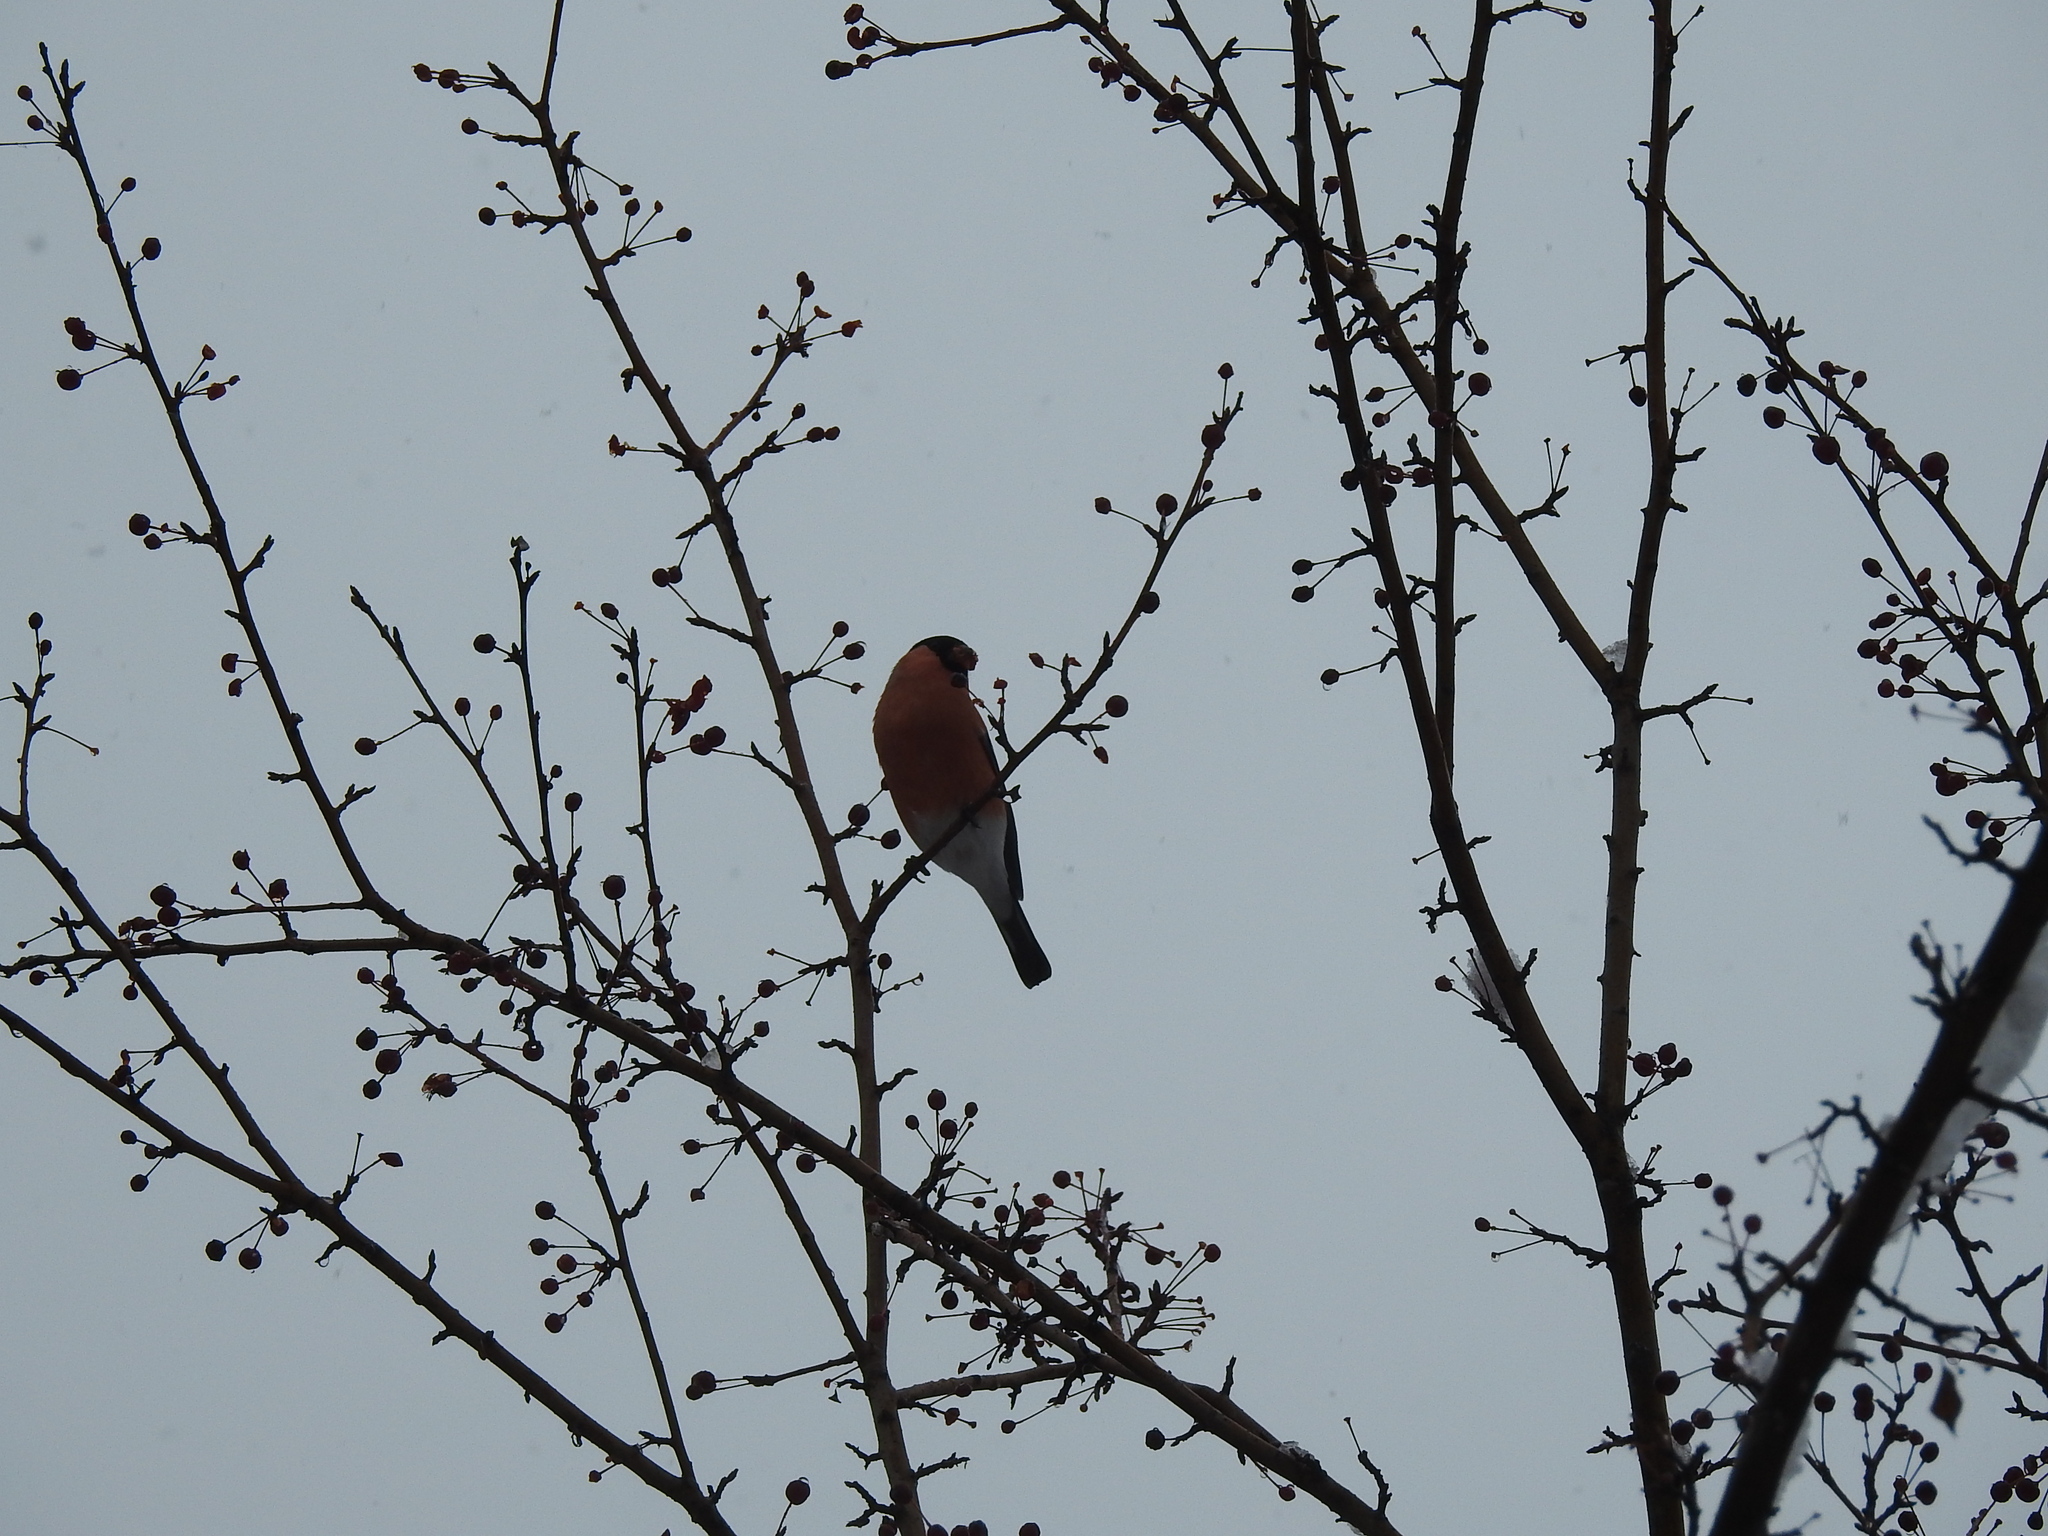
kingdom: Animalia
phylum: Chordata
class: Aves
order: Passeriformes
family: Fringillidae
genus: Pyrrhula
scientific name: Pyrrhula pyrrhula
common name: Eurasian bullfinch
